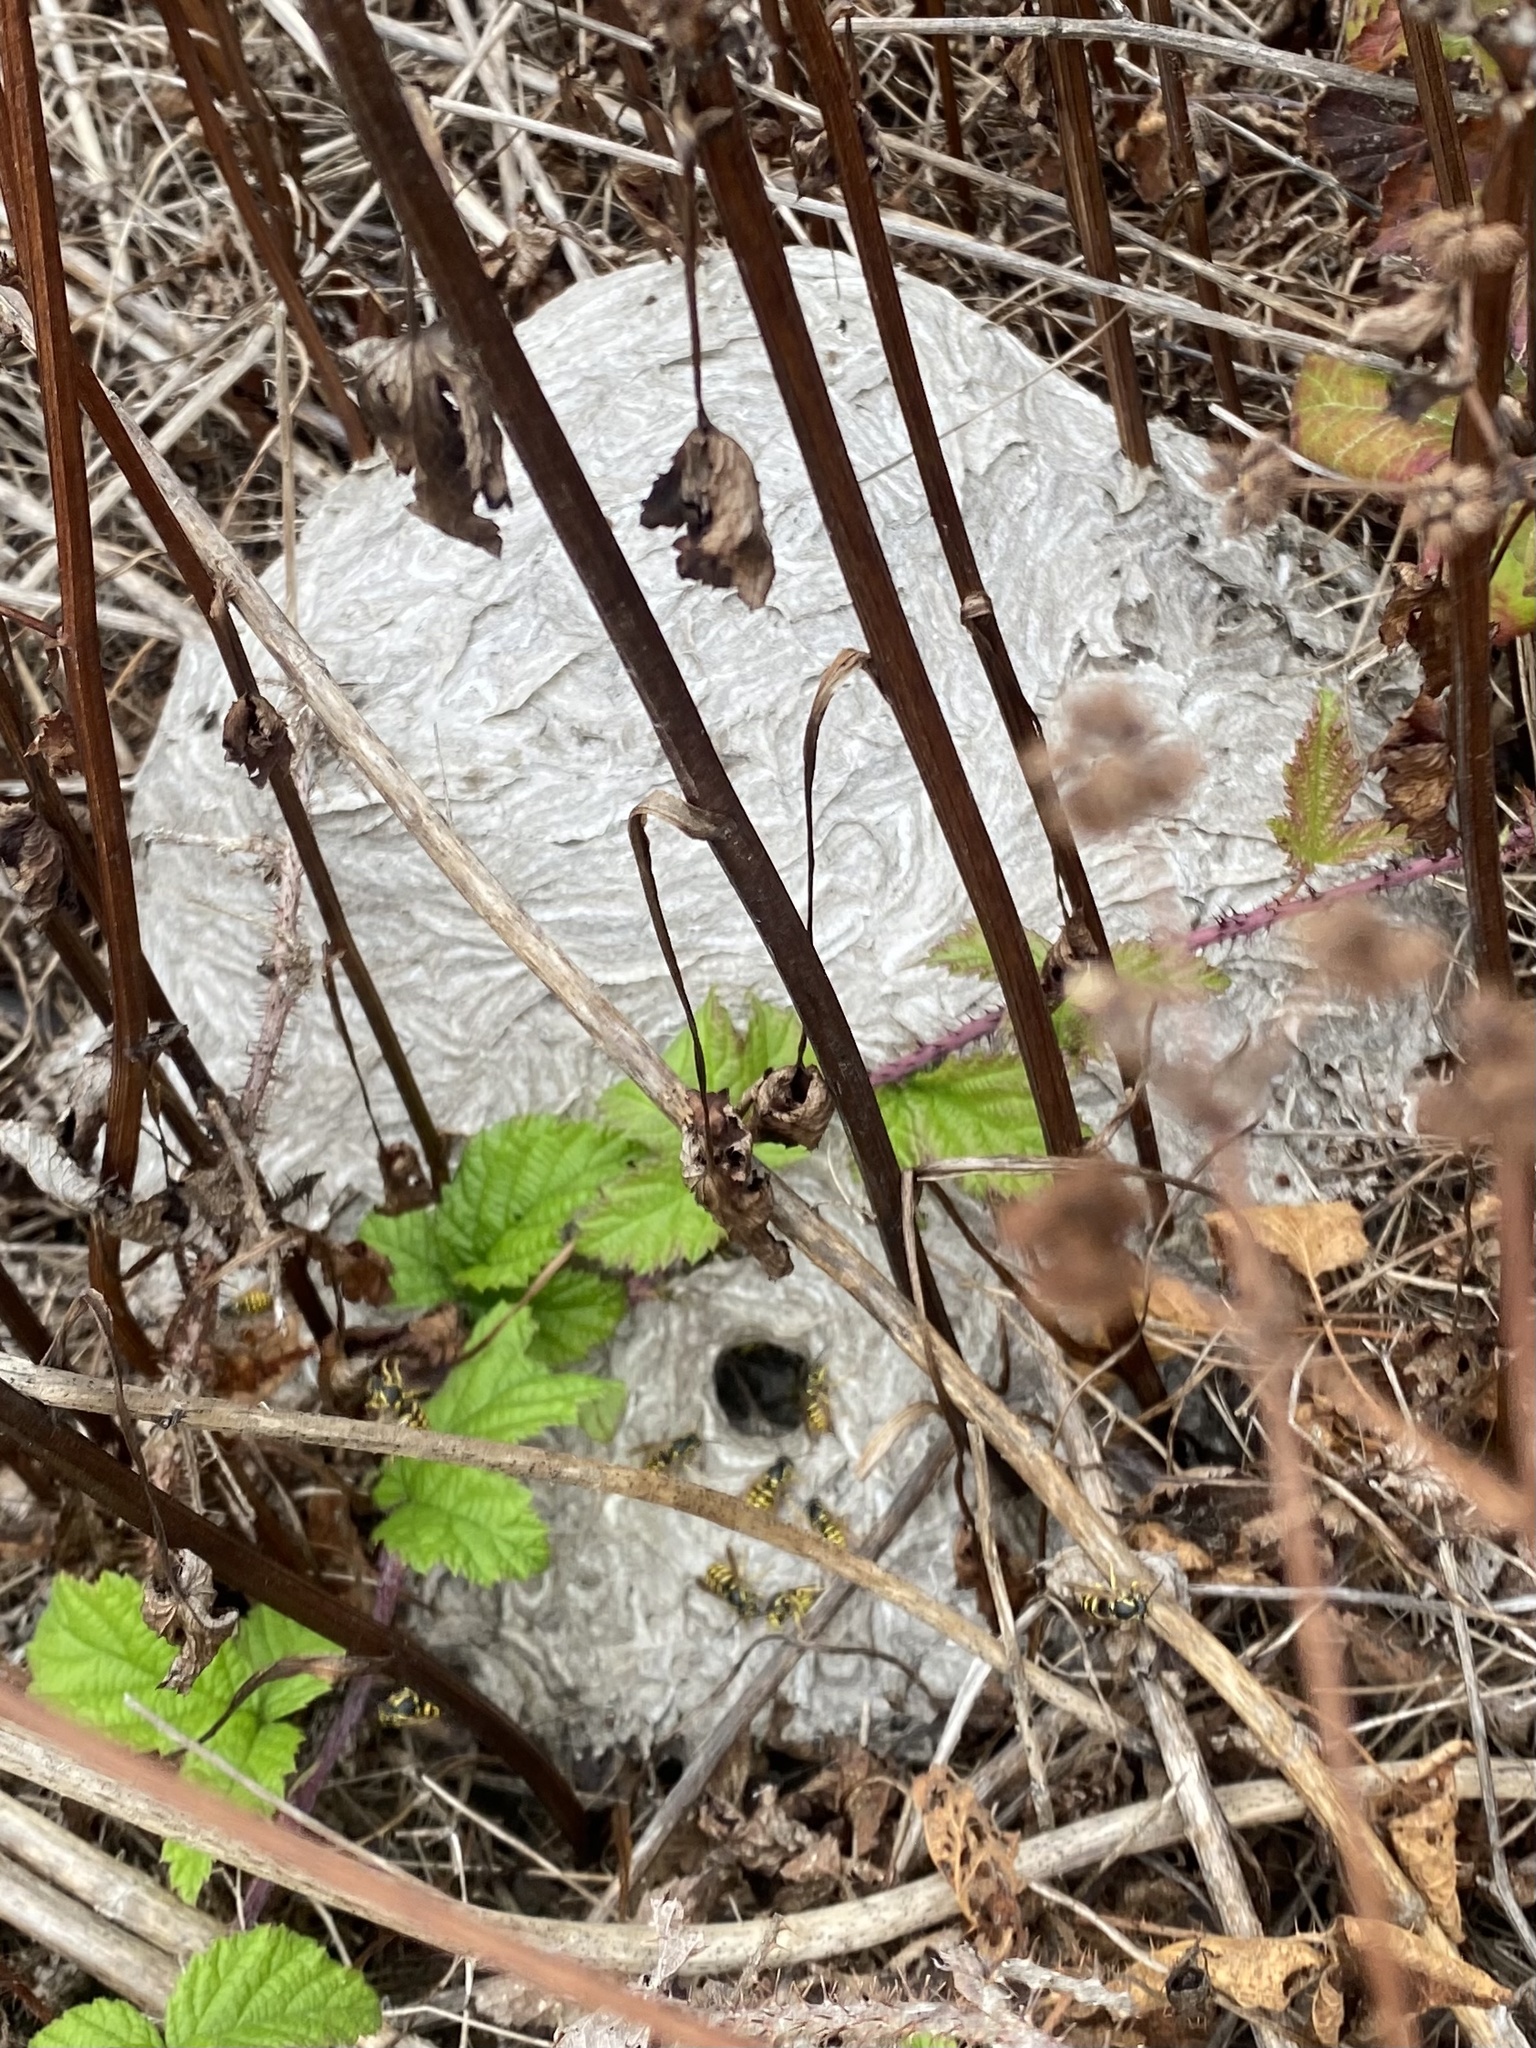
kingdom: Animalia
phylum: Arthropoda
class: Insecta
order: Hymenoptera
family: Vespidae
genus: Dolichovespula
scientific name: Dolichovespula arenaria
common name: Aerial yellowjacket
